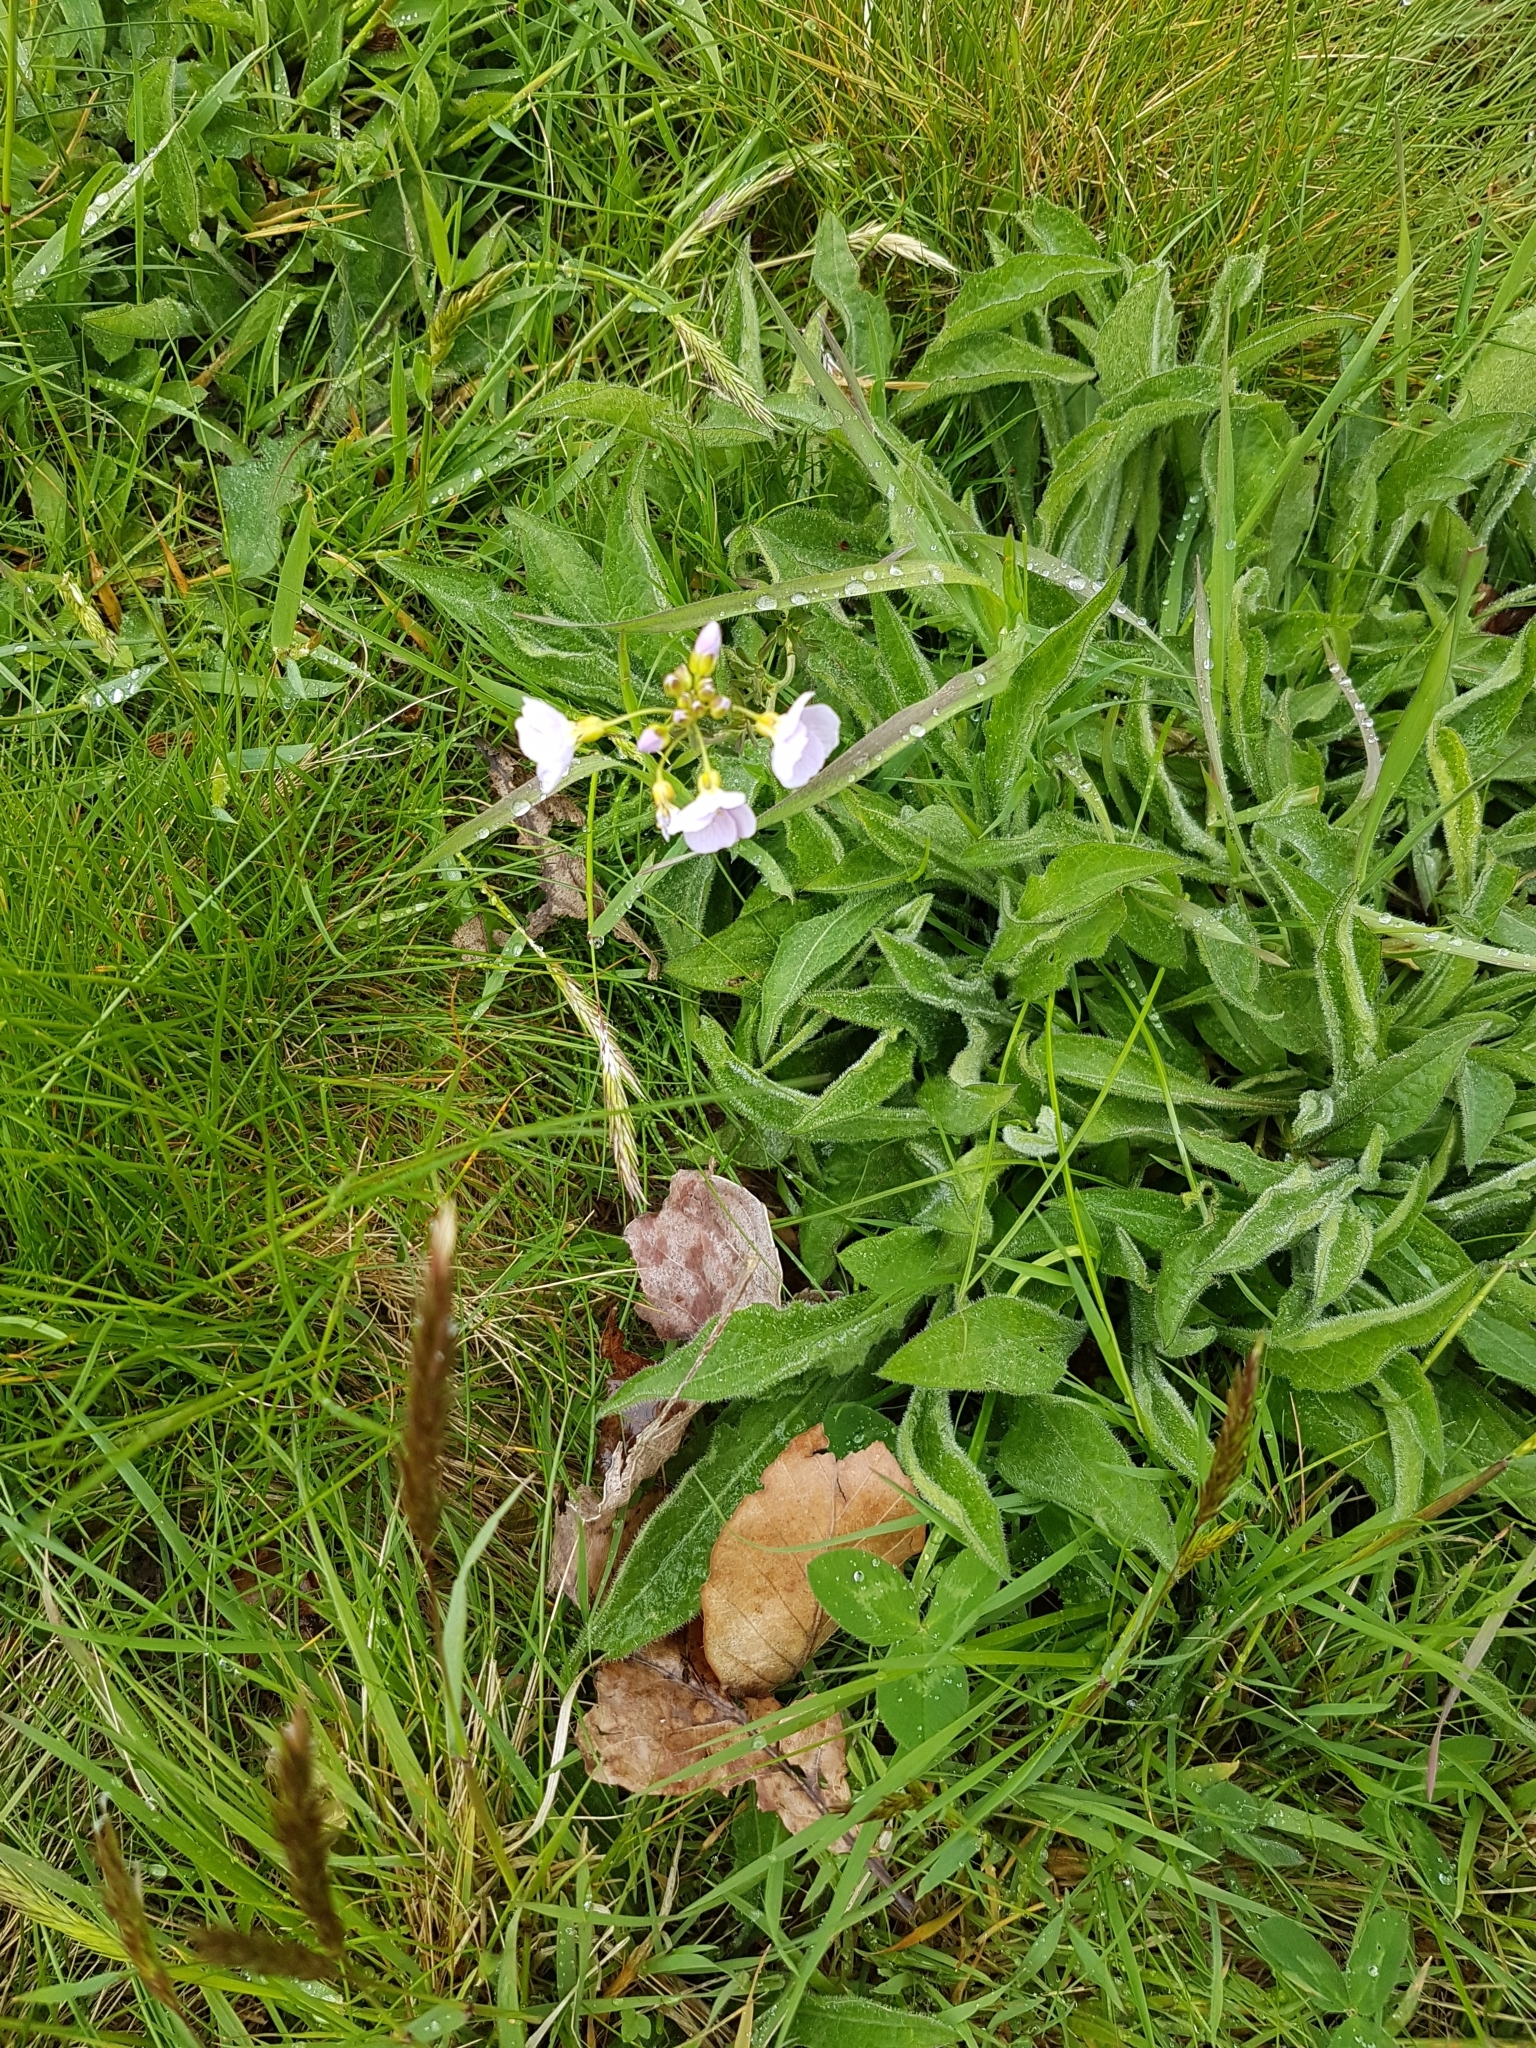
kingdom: Plantae
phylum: Tracheophyta
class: Magnoliopsida
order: Brassicales
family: Brassicaceae
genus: Cardamine
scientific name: Cardamine pratensis
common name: Cuckoo flower
